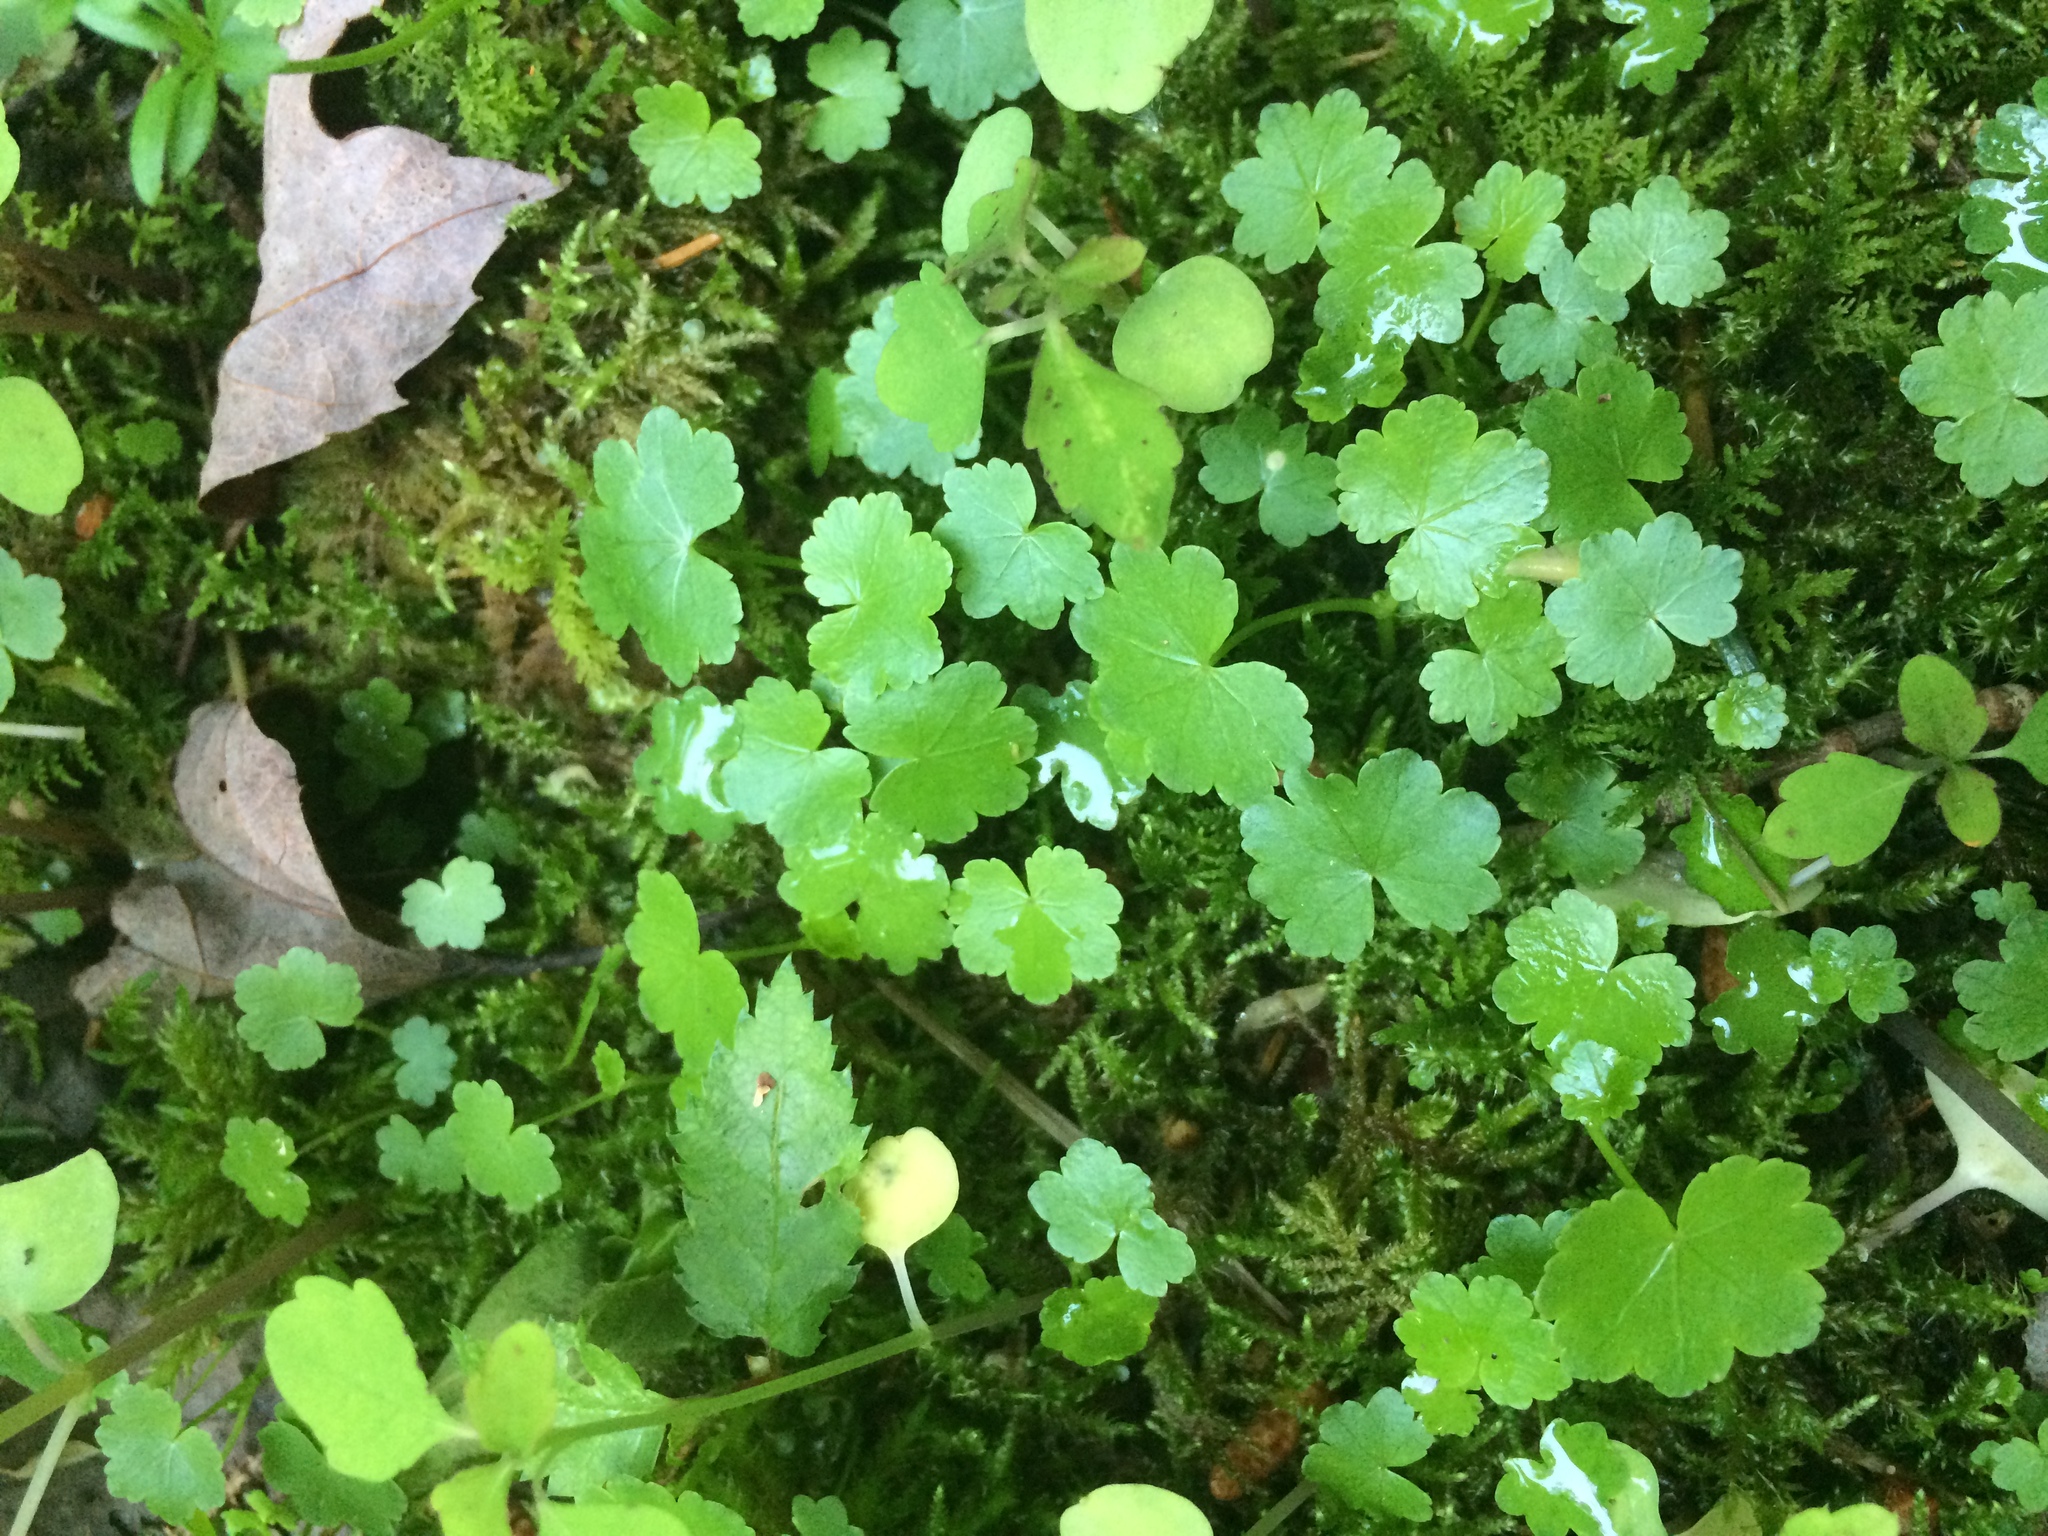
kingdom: Plantae
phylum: Tracheophyta
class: Magnoliopsida
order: Apiales
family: Araliaceae
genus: Hydrocotyle
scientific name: Hydrocotyle americana
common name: American water-pennywort
